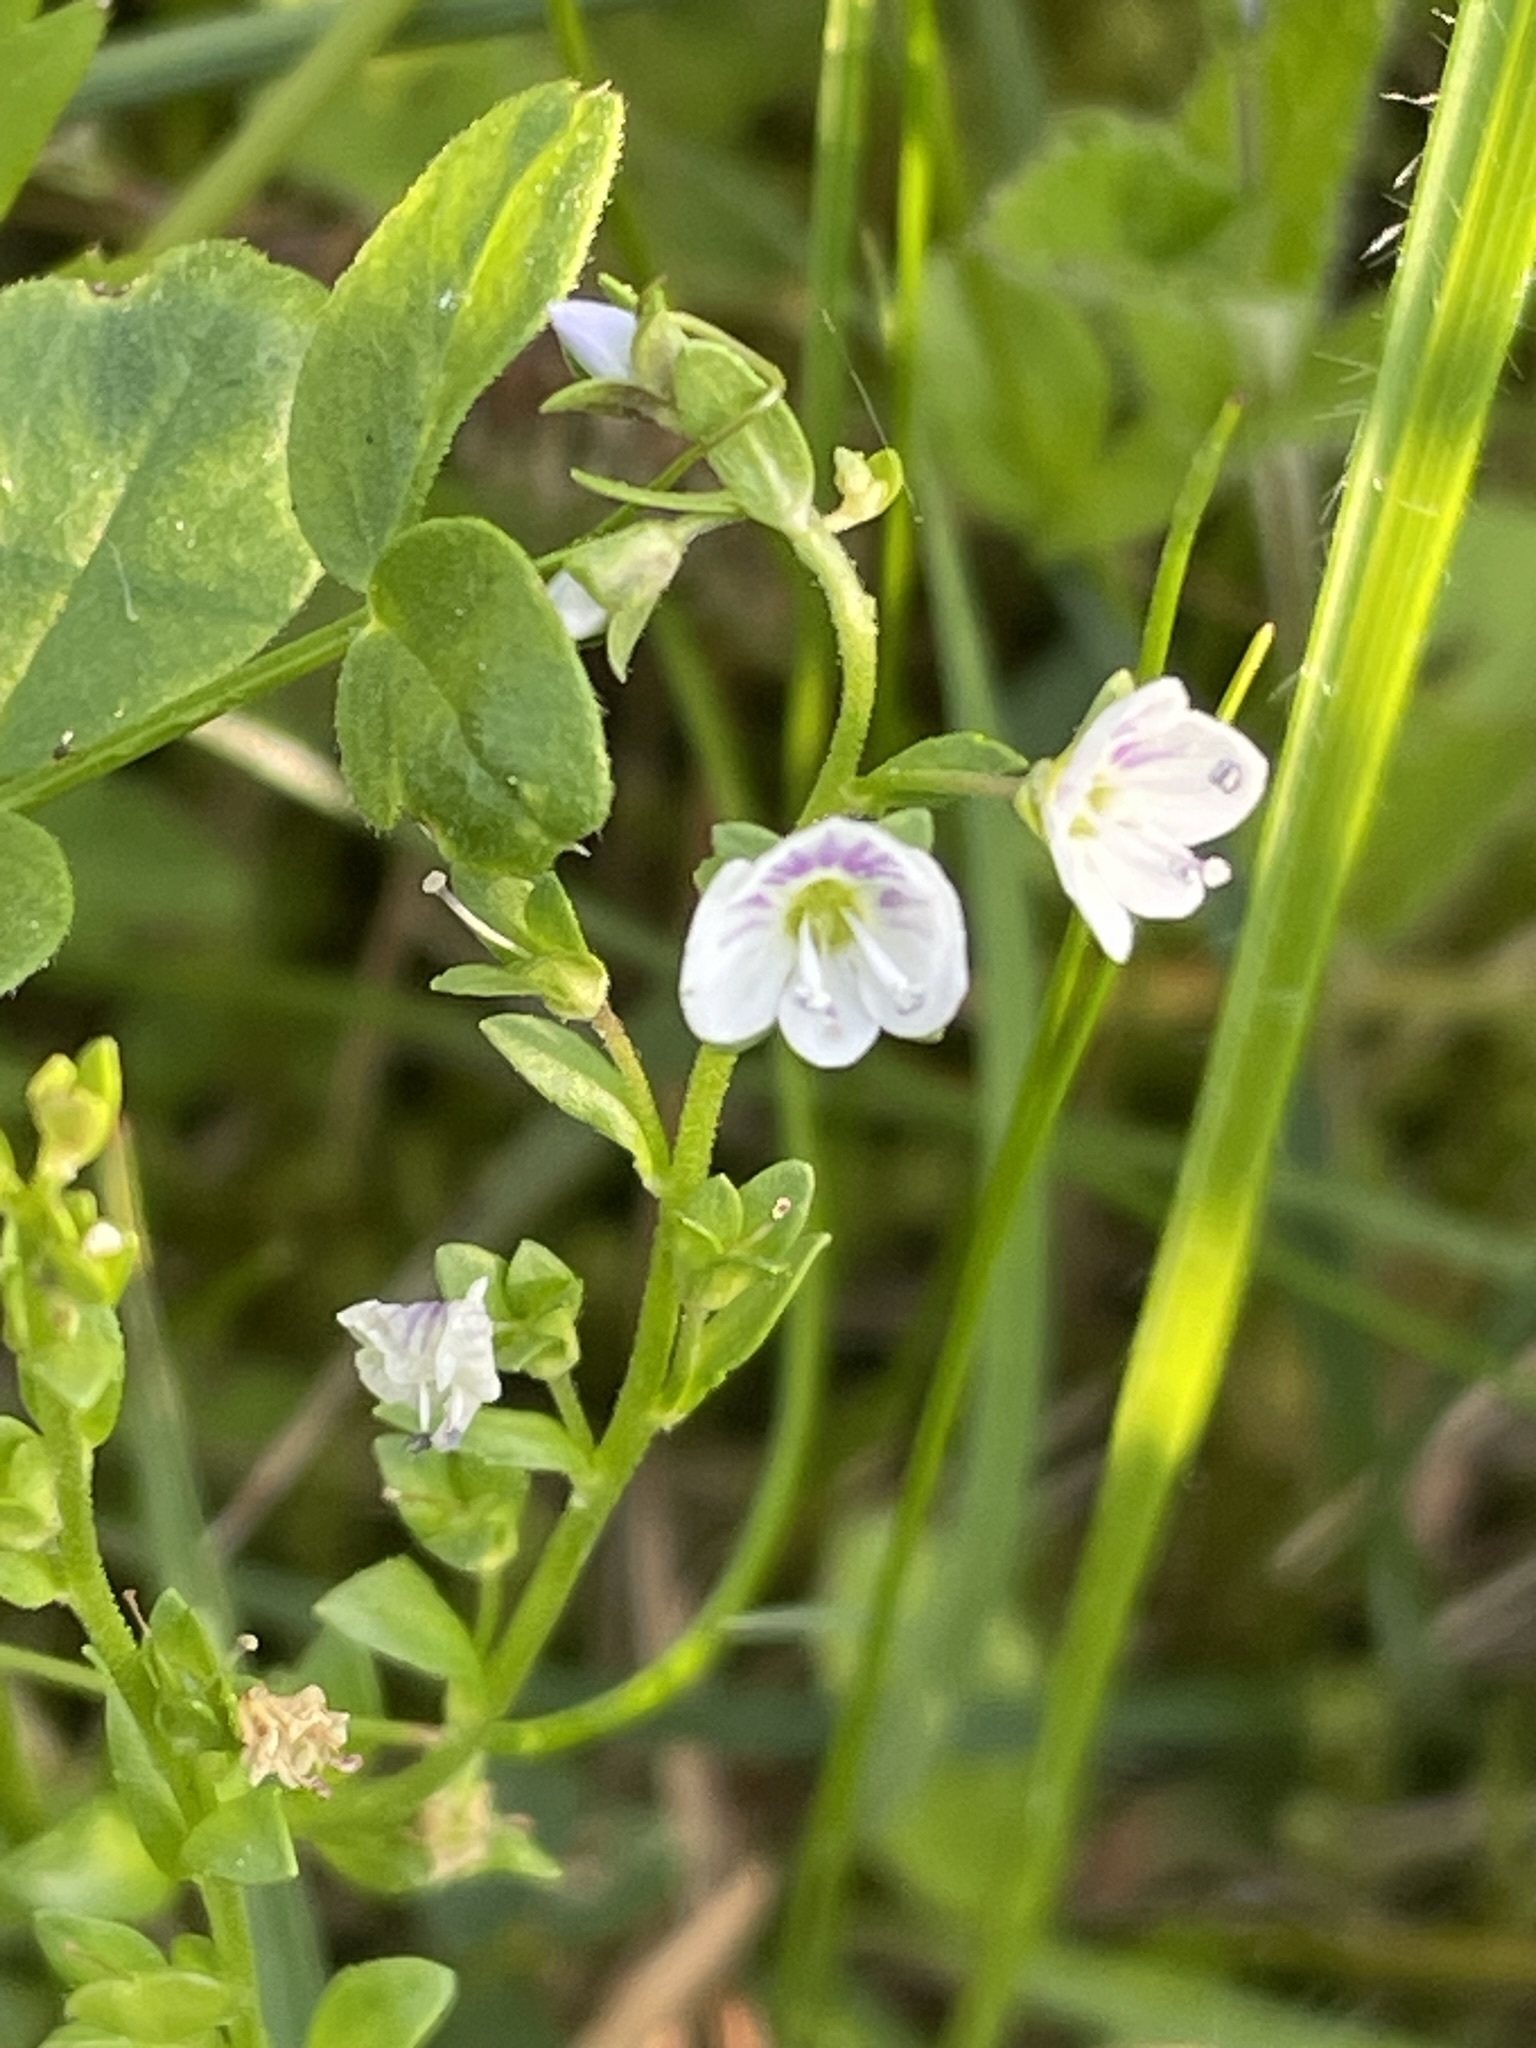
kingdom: Plantae
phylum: Tracheophyta
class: Magnoliopsida
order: Lamiales
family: Plantaginaceae
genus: Veronica
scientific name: Veronica serpyllifolia
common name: Thyme-leaved speedwell
